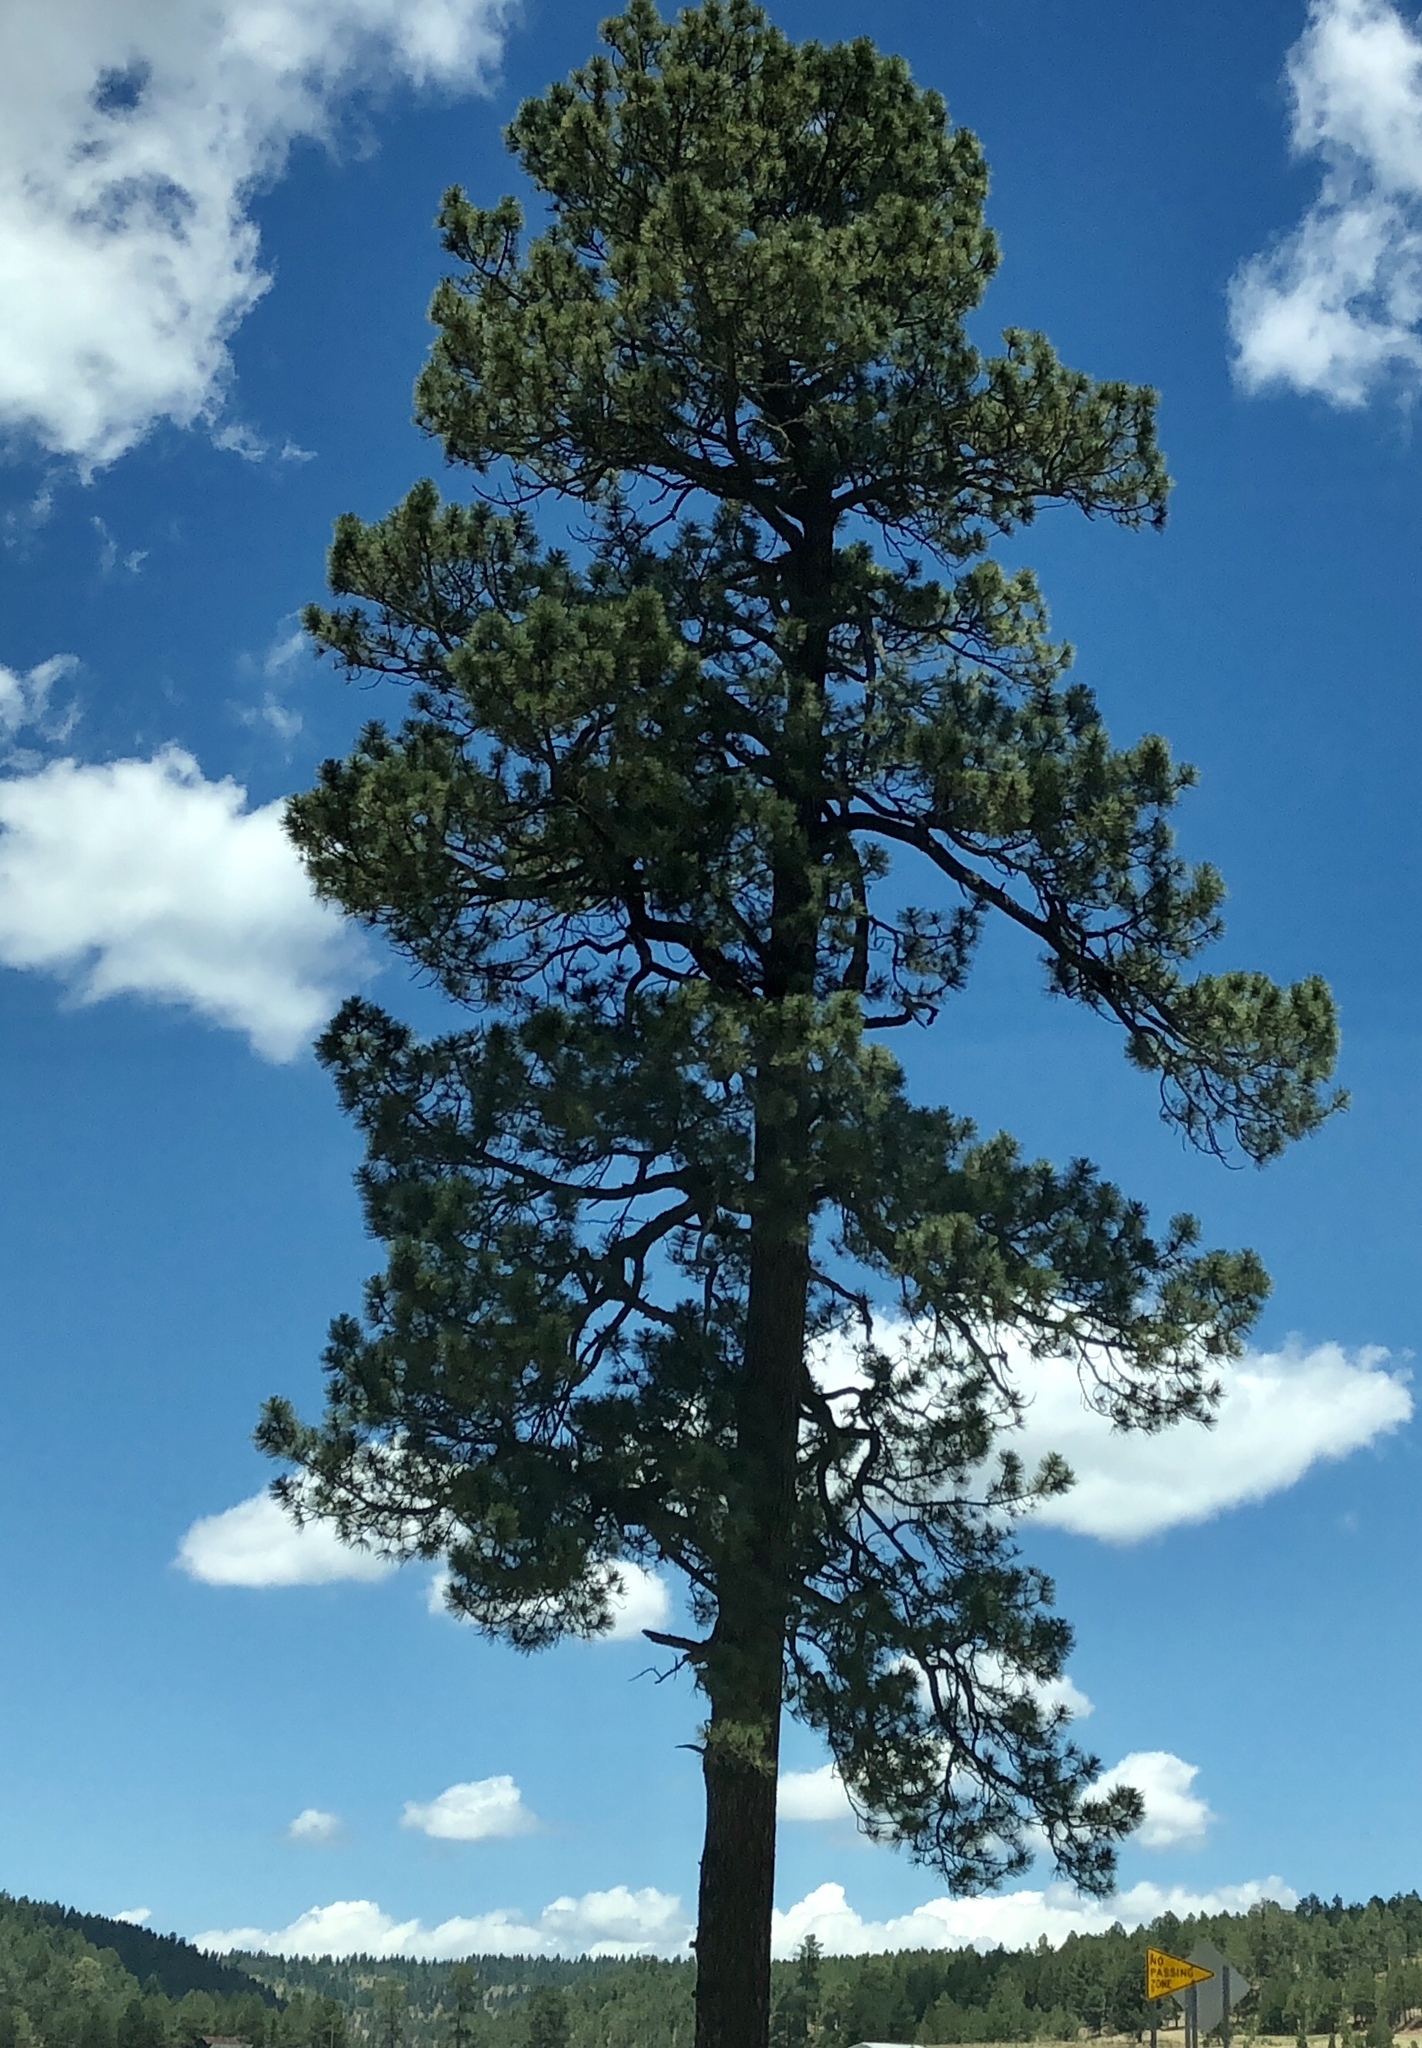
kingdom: Plantae
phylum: Tracheophyta
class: Pinopsida
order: Pinales
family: Pinaceae
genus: Pinus
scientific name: Pinus ponderosa
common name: Western yellow-pine
